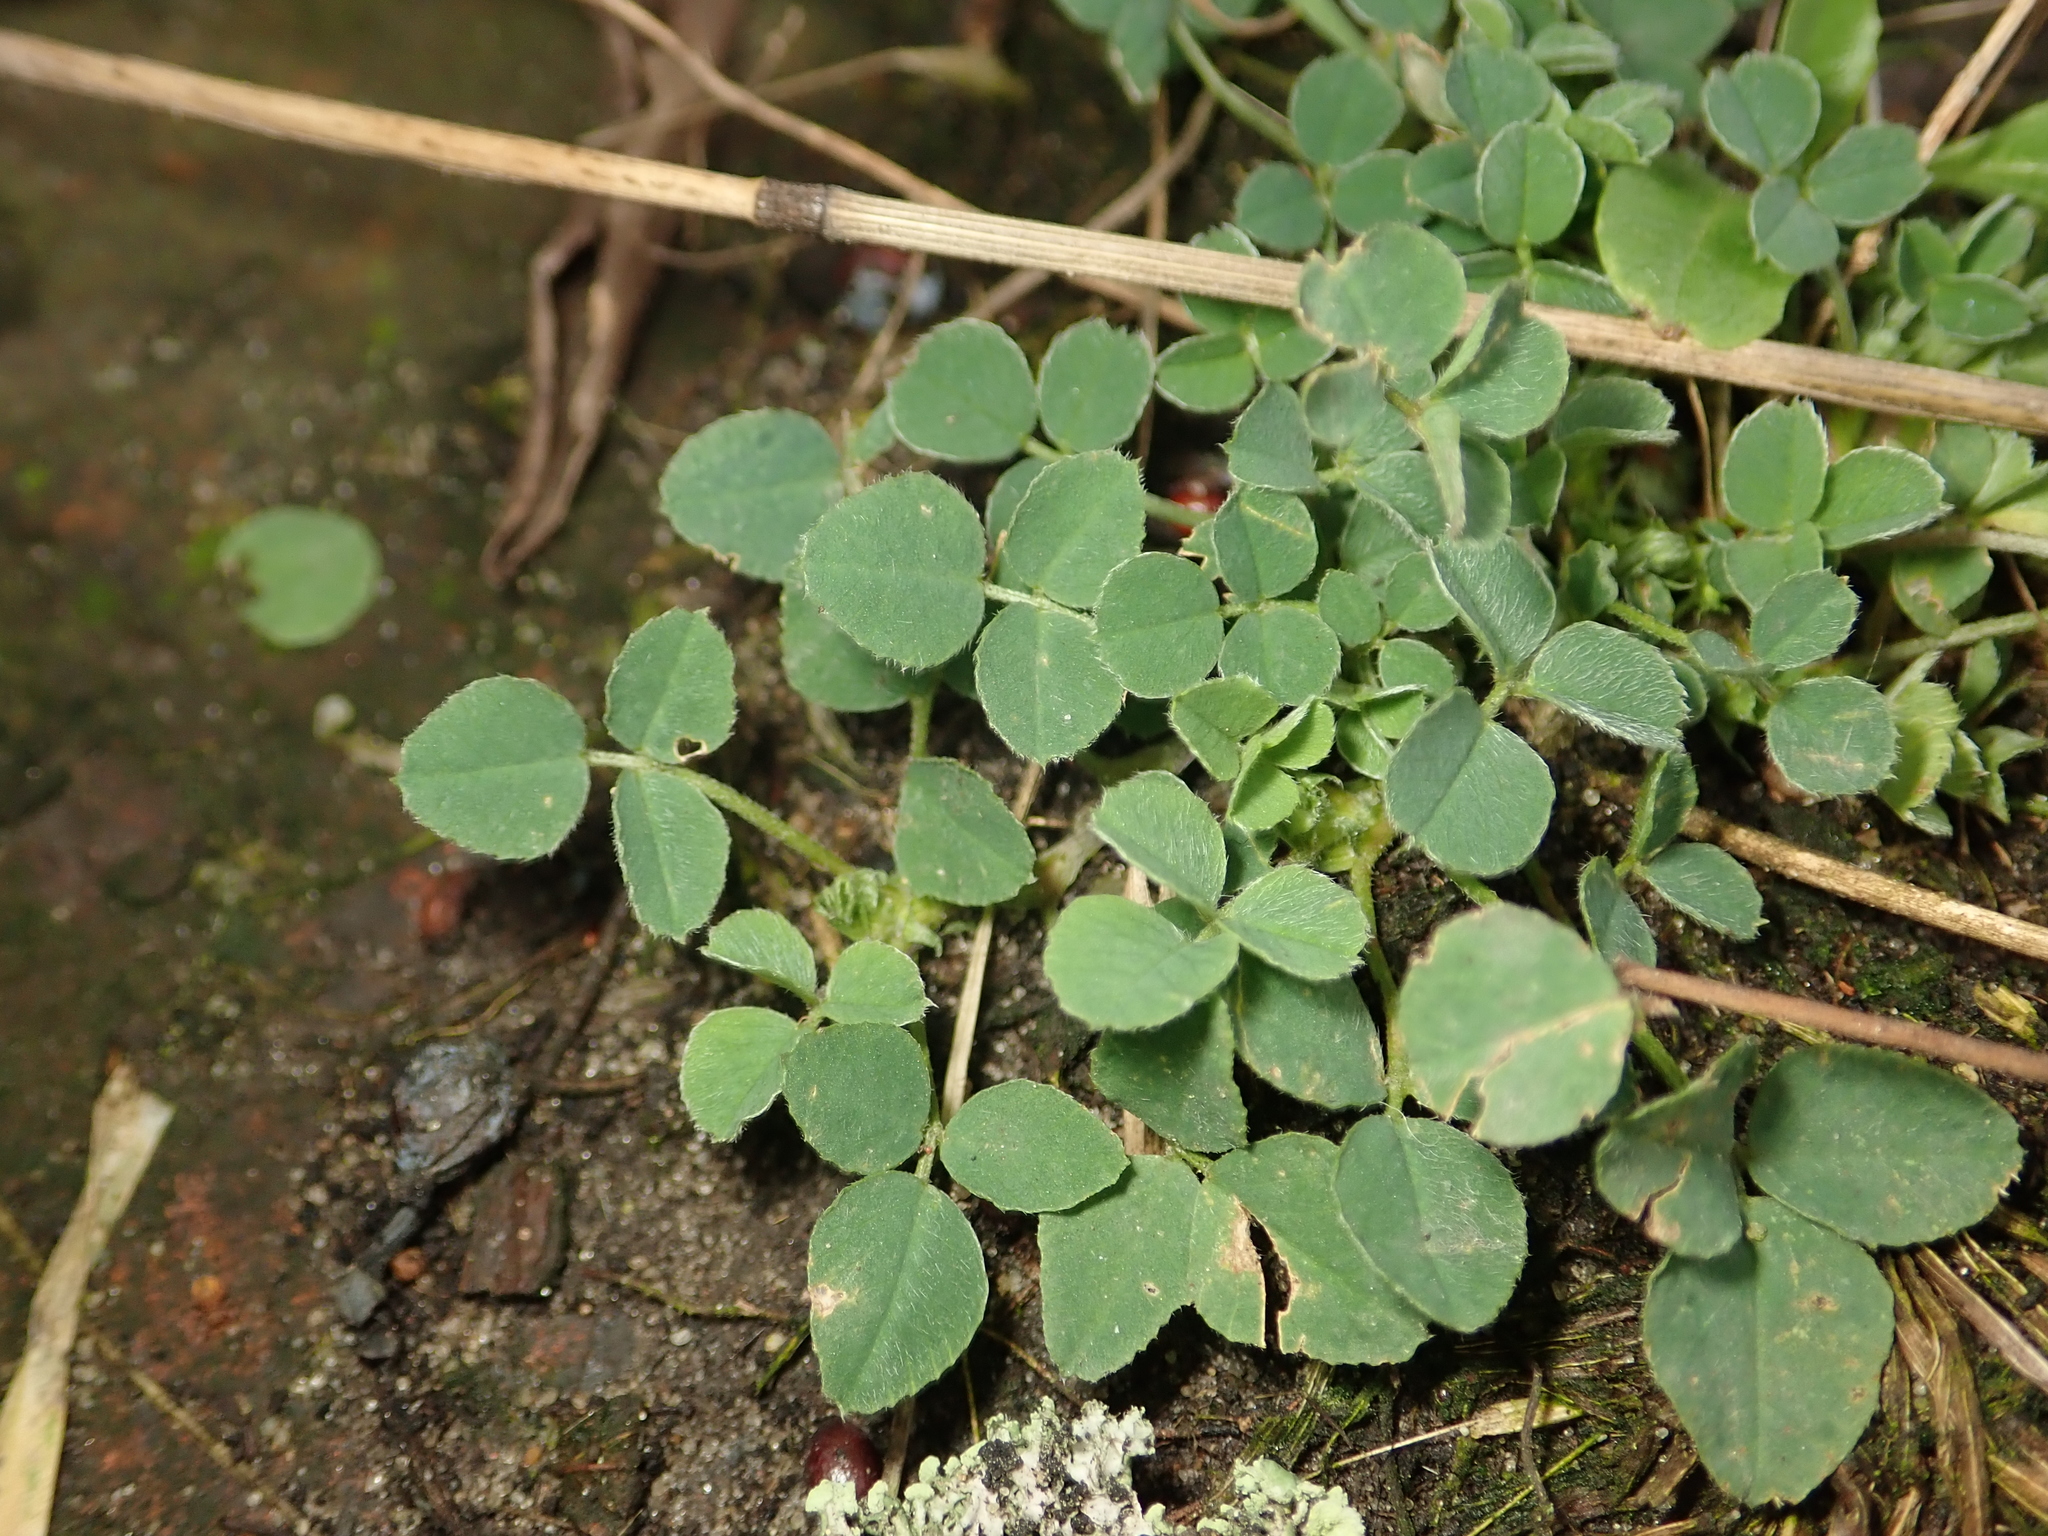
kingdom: Plantae
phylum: Tracheophyta
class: Magnoliopsida
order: Fabales
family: Fabaceae
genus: Medicago
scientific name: Medicago lupulina
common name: Black medick
